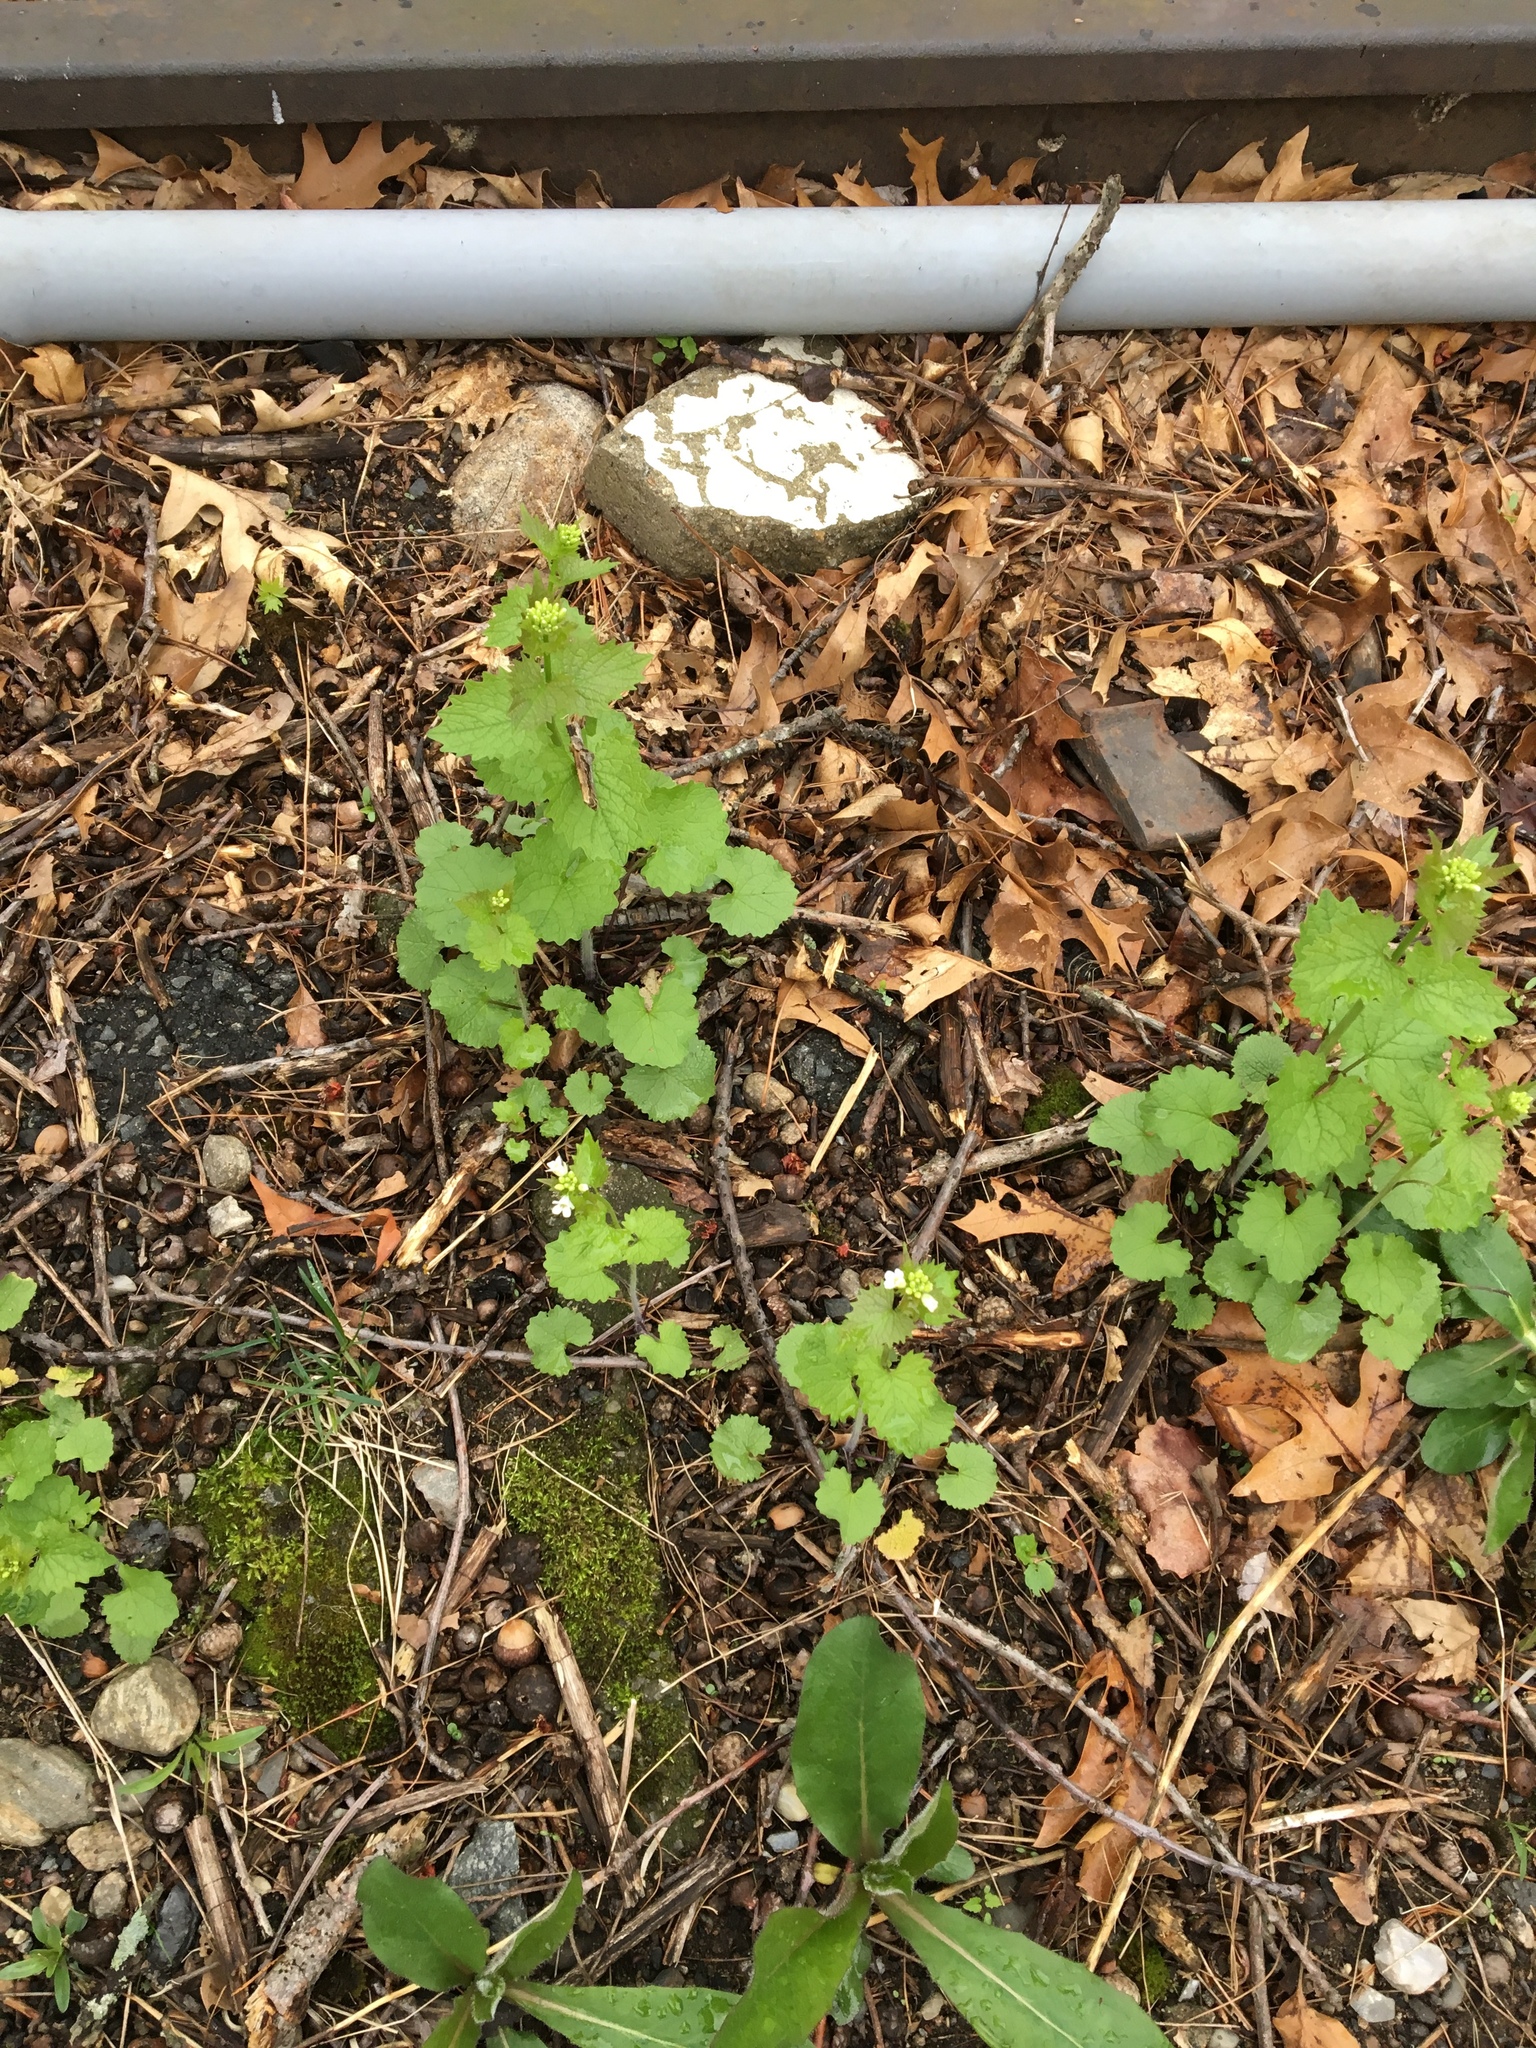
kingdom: Plantae
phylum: Tracheophyta
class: Magnoliopsida
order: Brassicales
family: Brassicaceae
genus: Alliaria
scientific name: Alliaria petiolata
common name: Garlic mustard
